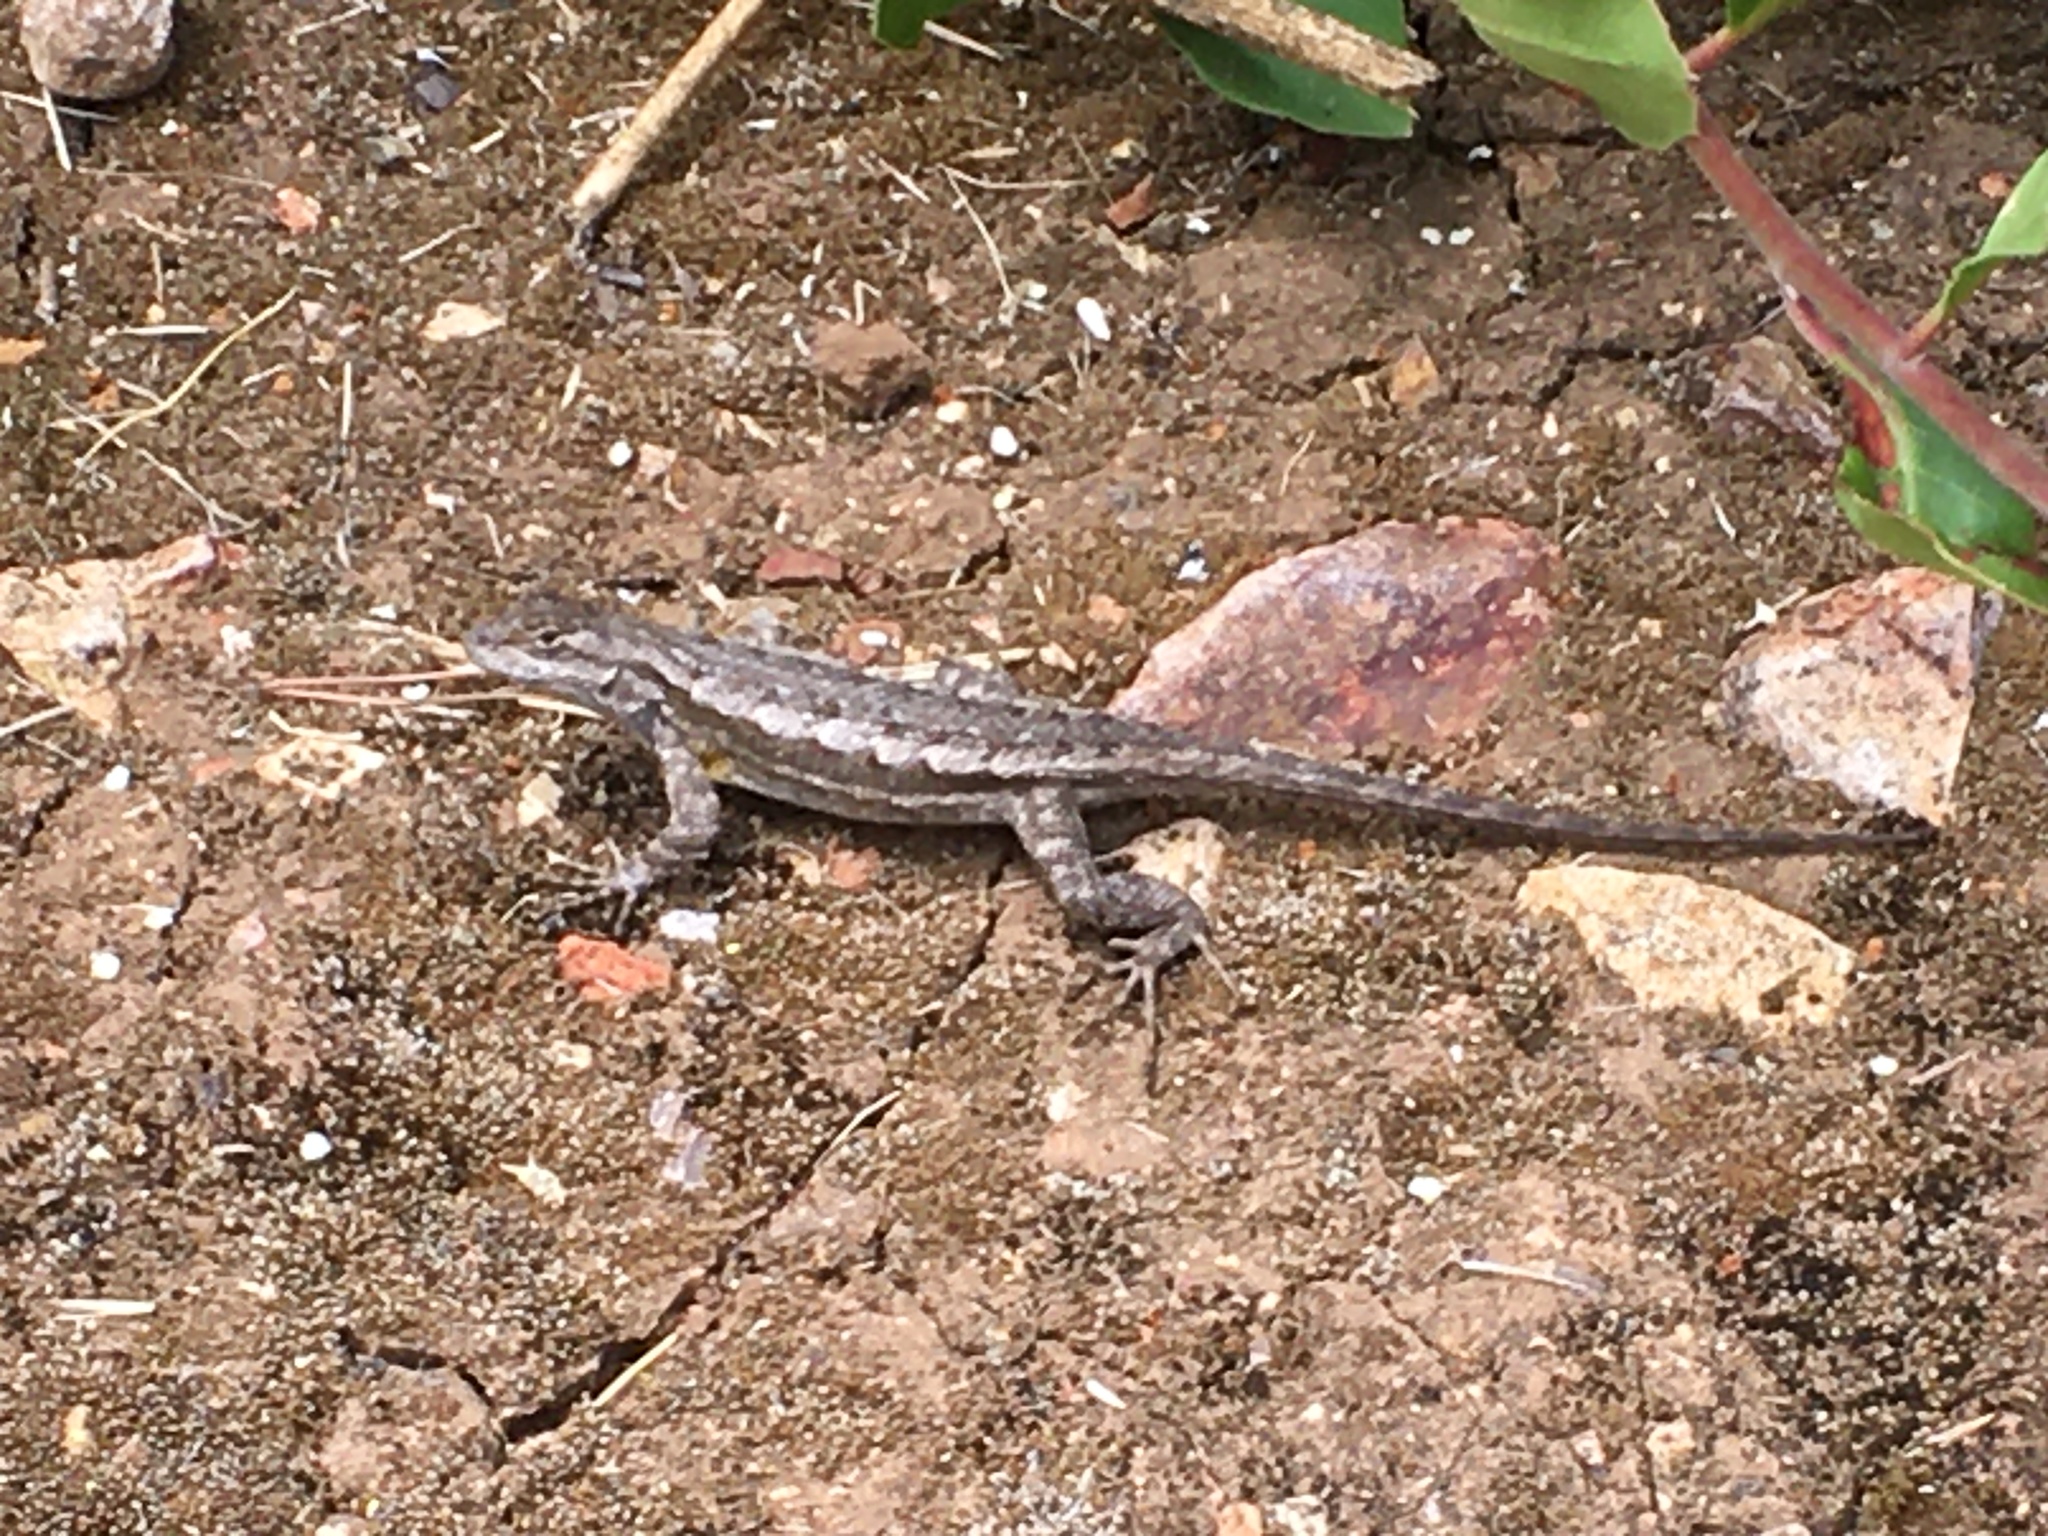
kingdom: Animalia
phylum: Chordata
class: Squamata
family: Phrynosomatidae
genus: Sceloporus
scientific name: Sceloporus occidentalis
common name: Western fence lizard
